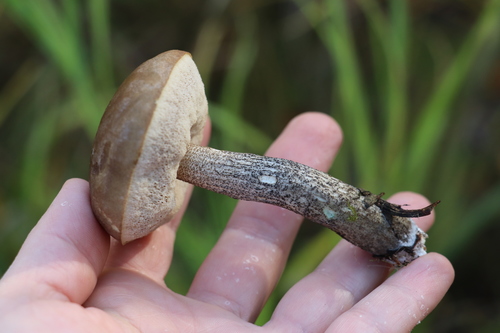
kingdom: Fungi
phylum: Basidiomycota
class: Agaricomycetes
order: Boletales
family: Boletaceae
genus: Leccinum
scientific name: Leccinum
